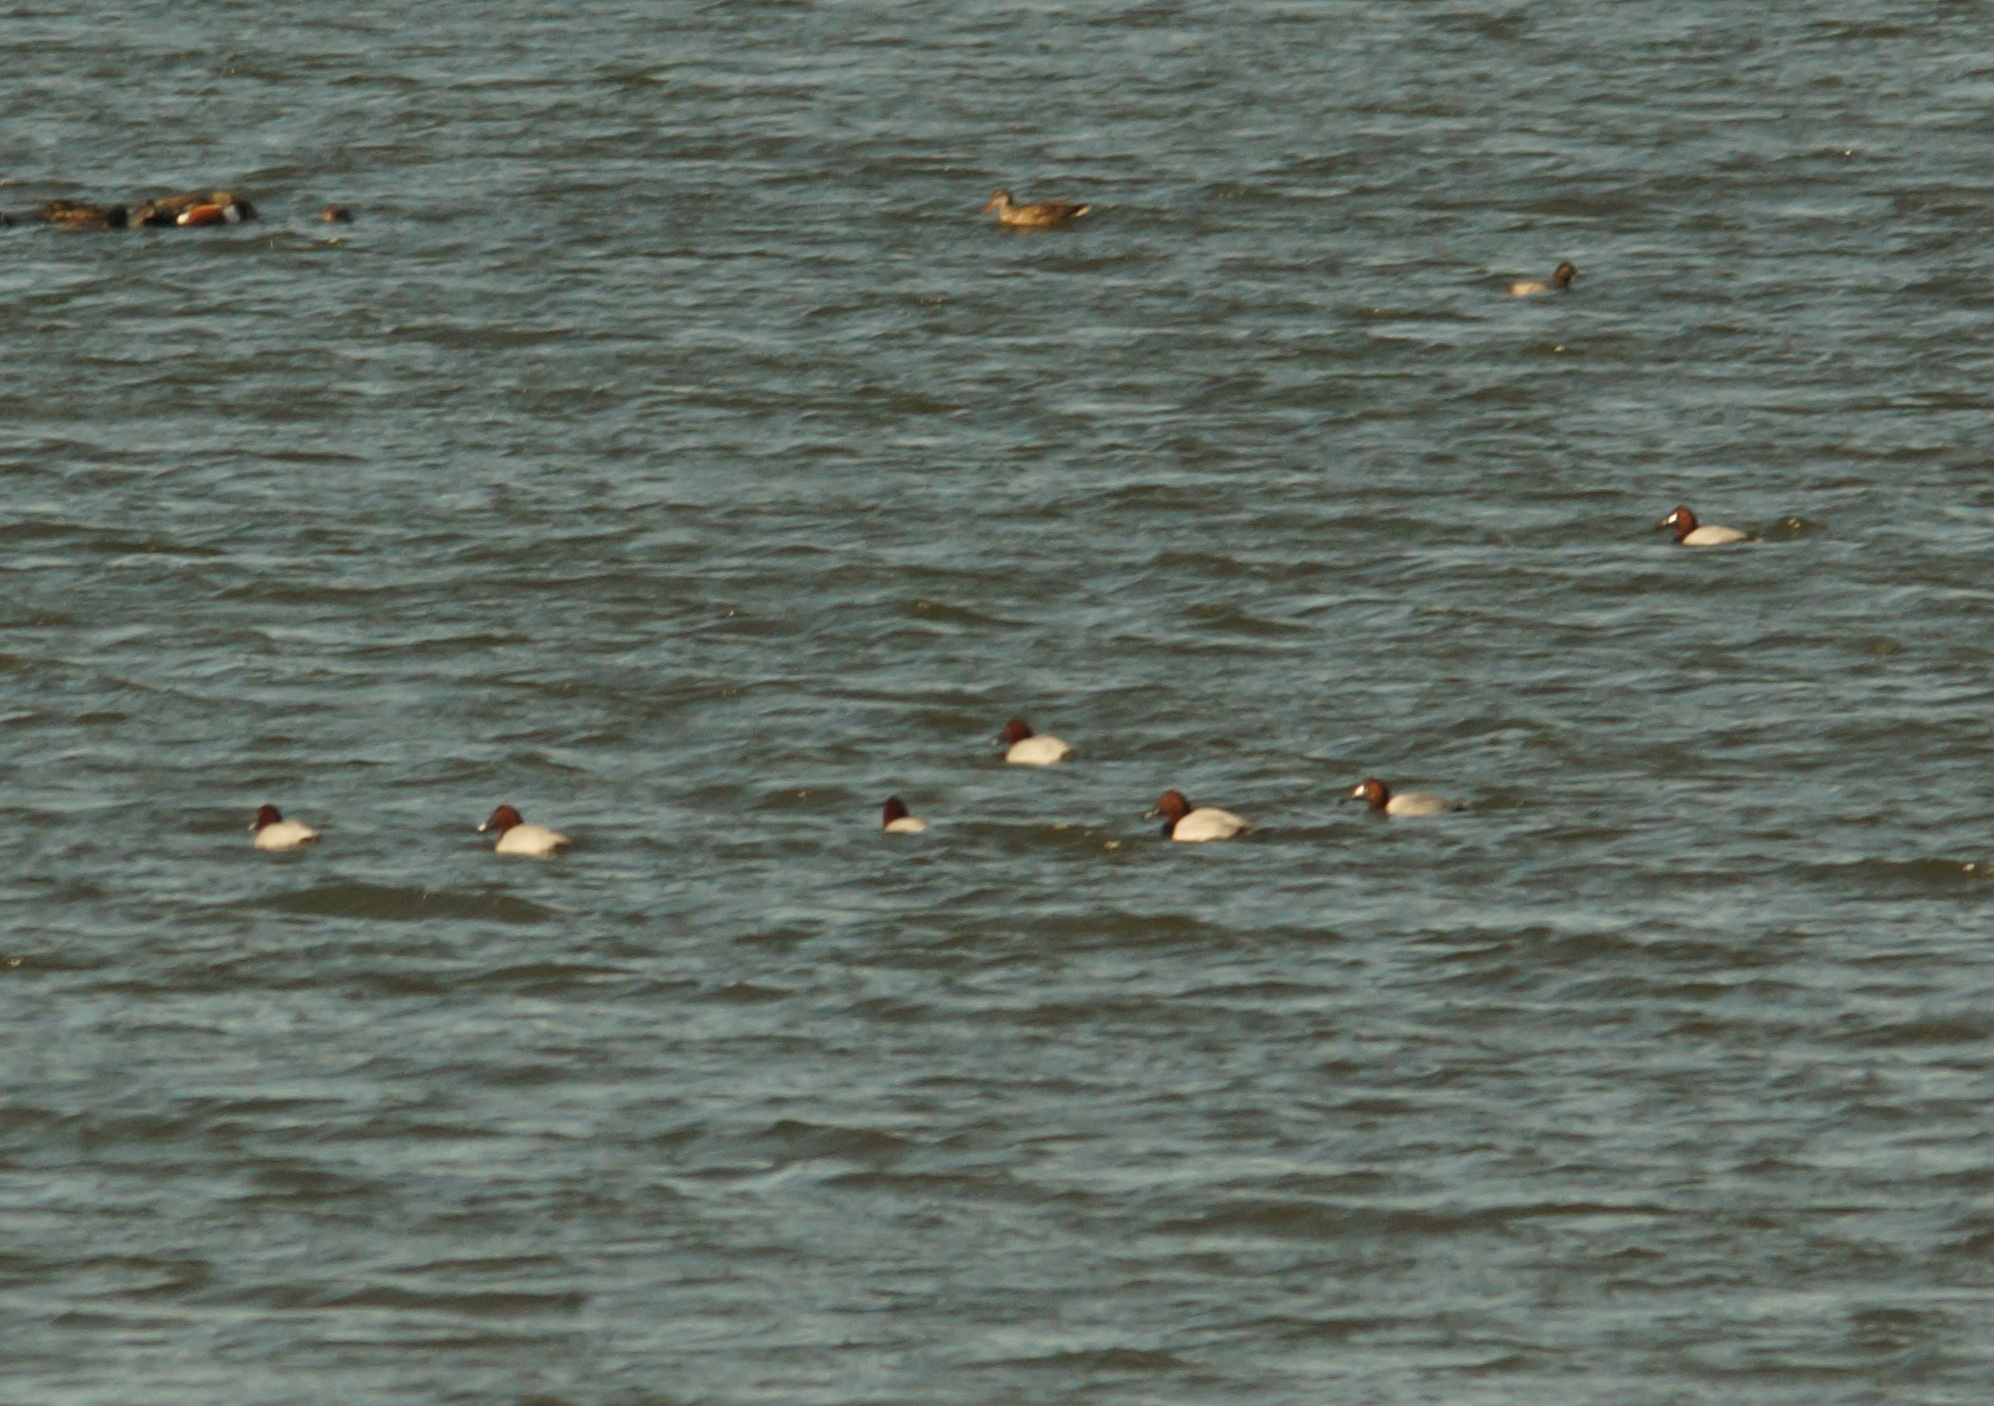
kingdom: Animalia
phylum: Chordata
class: Aves
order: Anseriformes
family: Anatidae
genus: Aythya
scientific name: Aythya ferina
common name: Common pochard
